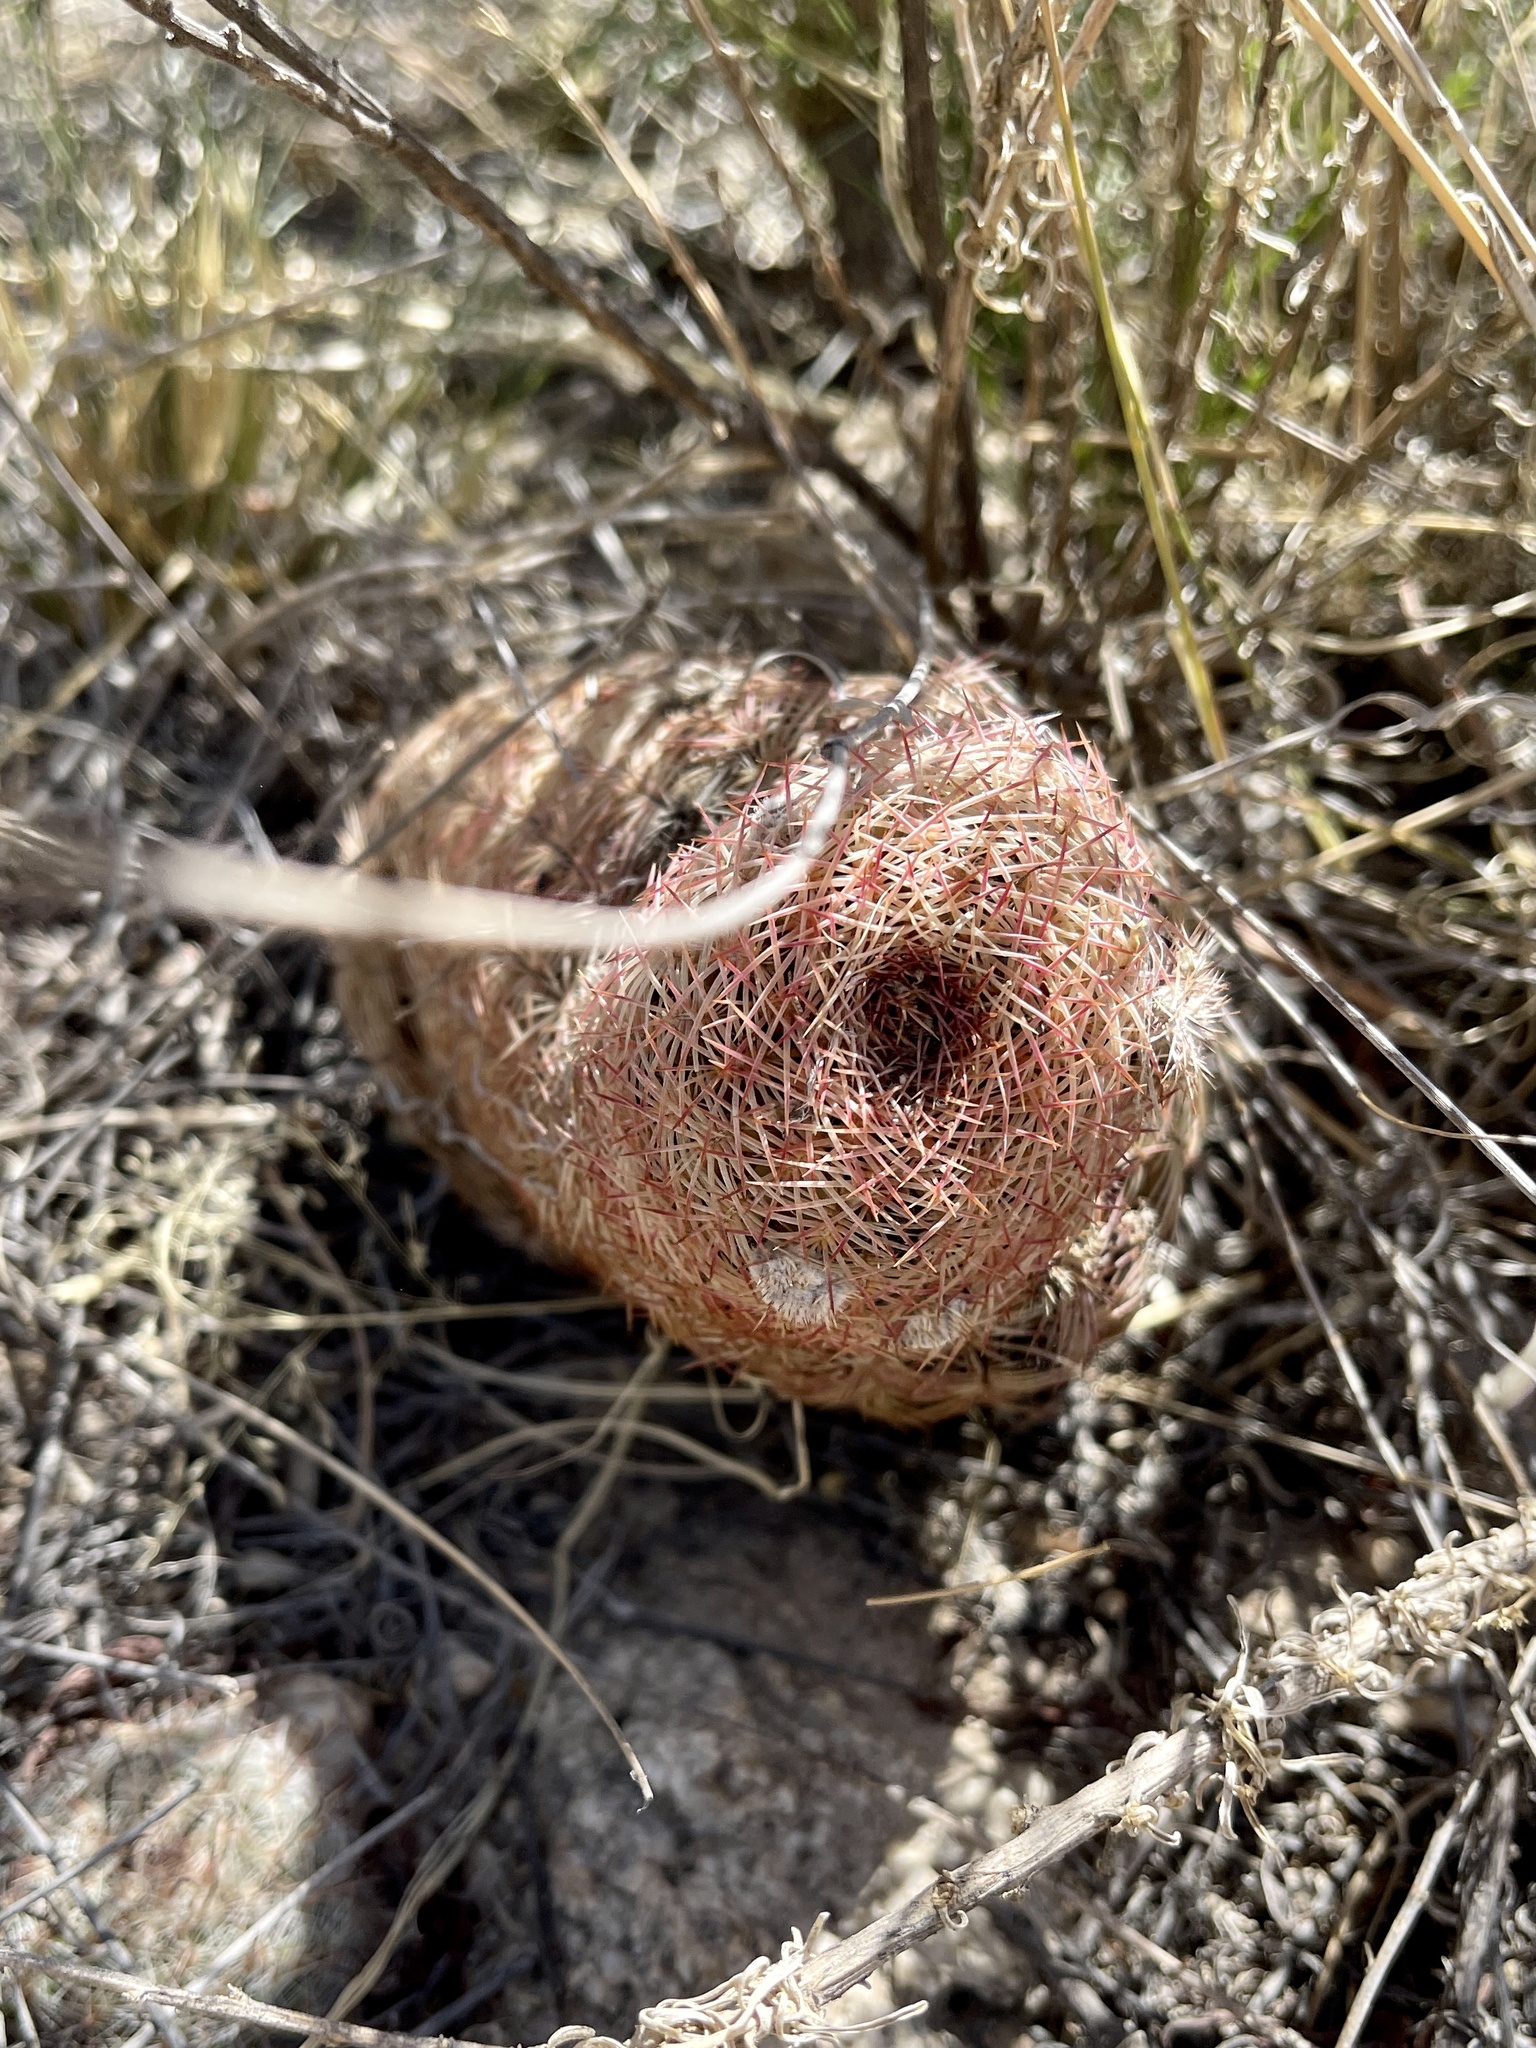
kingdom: Plantae
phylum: Tracheophyta
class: Magnoliopsida
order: Caryophyllales
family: Cactaceae
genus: Echinocereus
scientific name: Echinocereus rigidissimus
